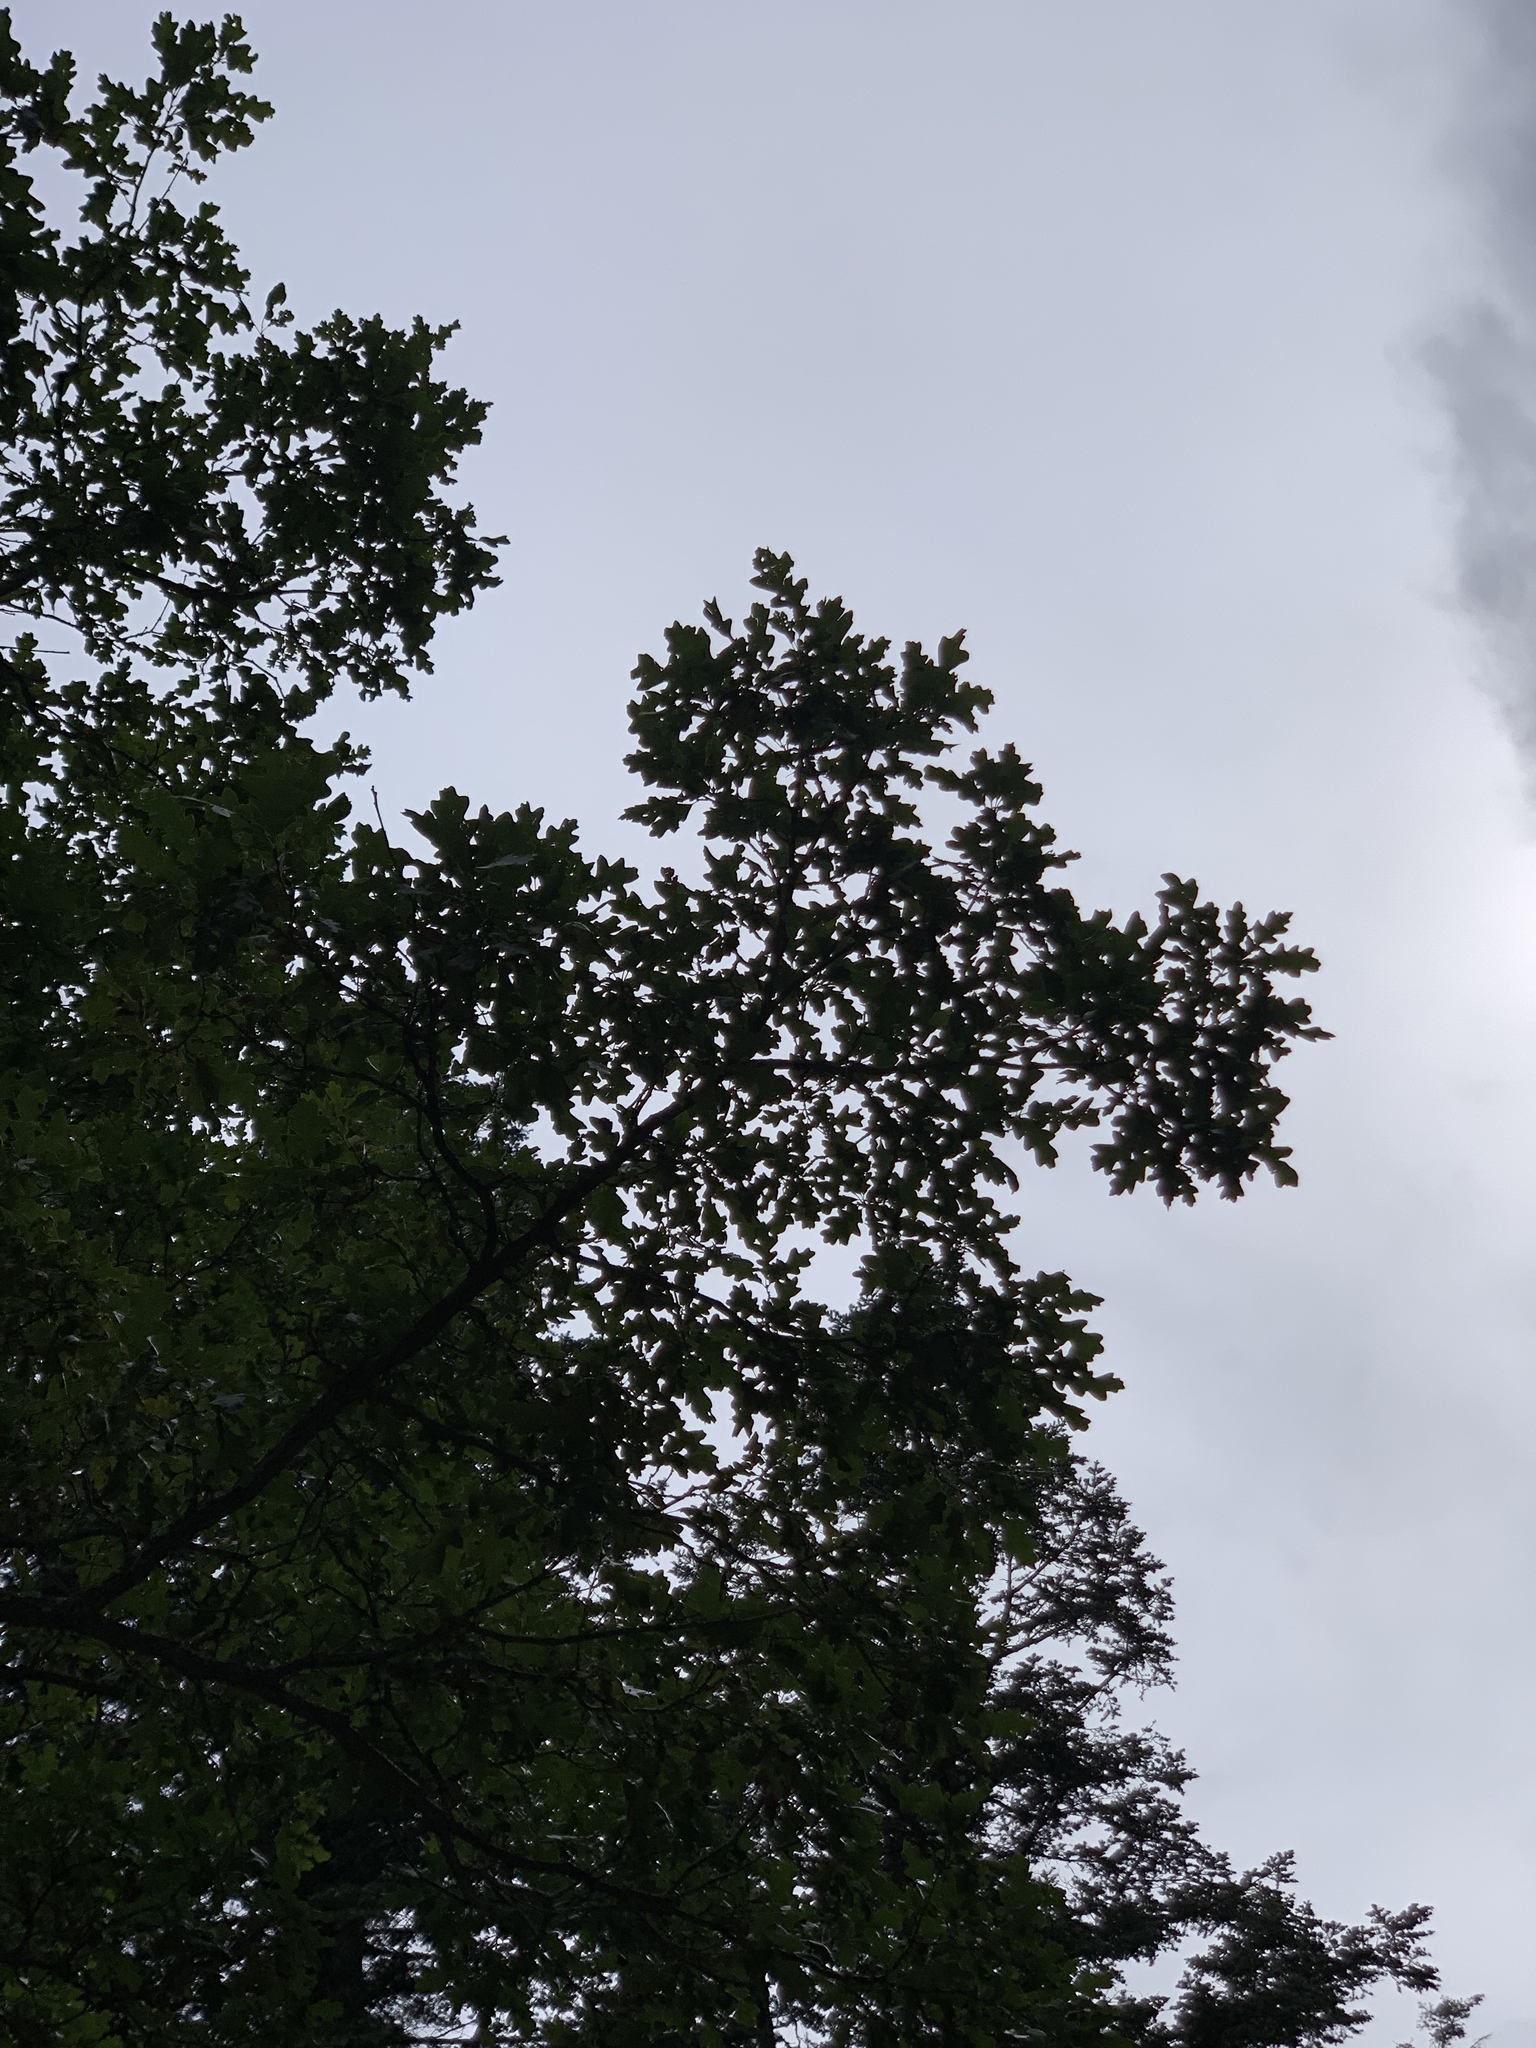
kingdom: Plantae
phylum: Tracheophyta
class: Magnoliopsida
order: Fagales
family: Fagaceae
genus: Quercus
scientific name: Quercus gambelii
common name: Gambel oak
